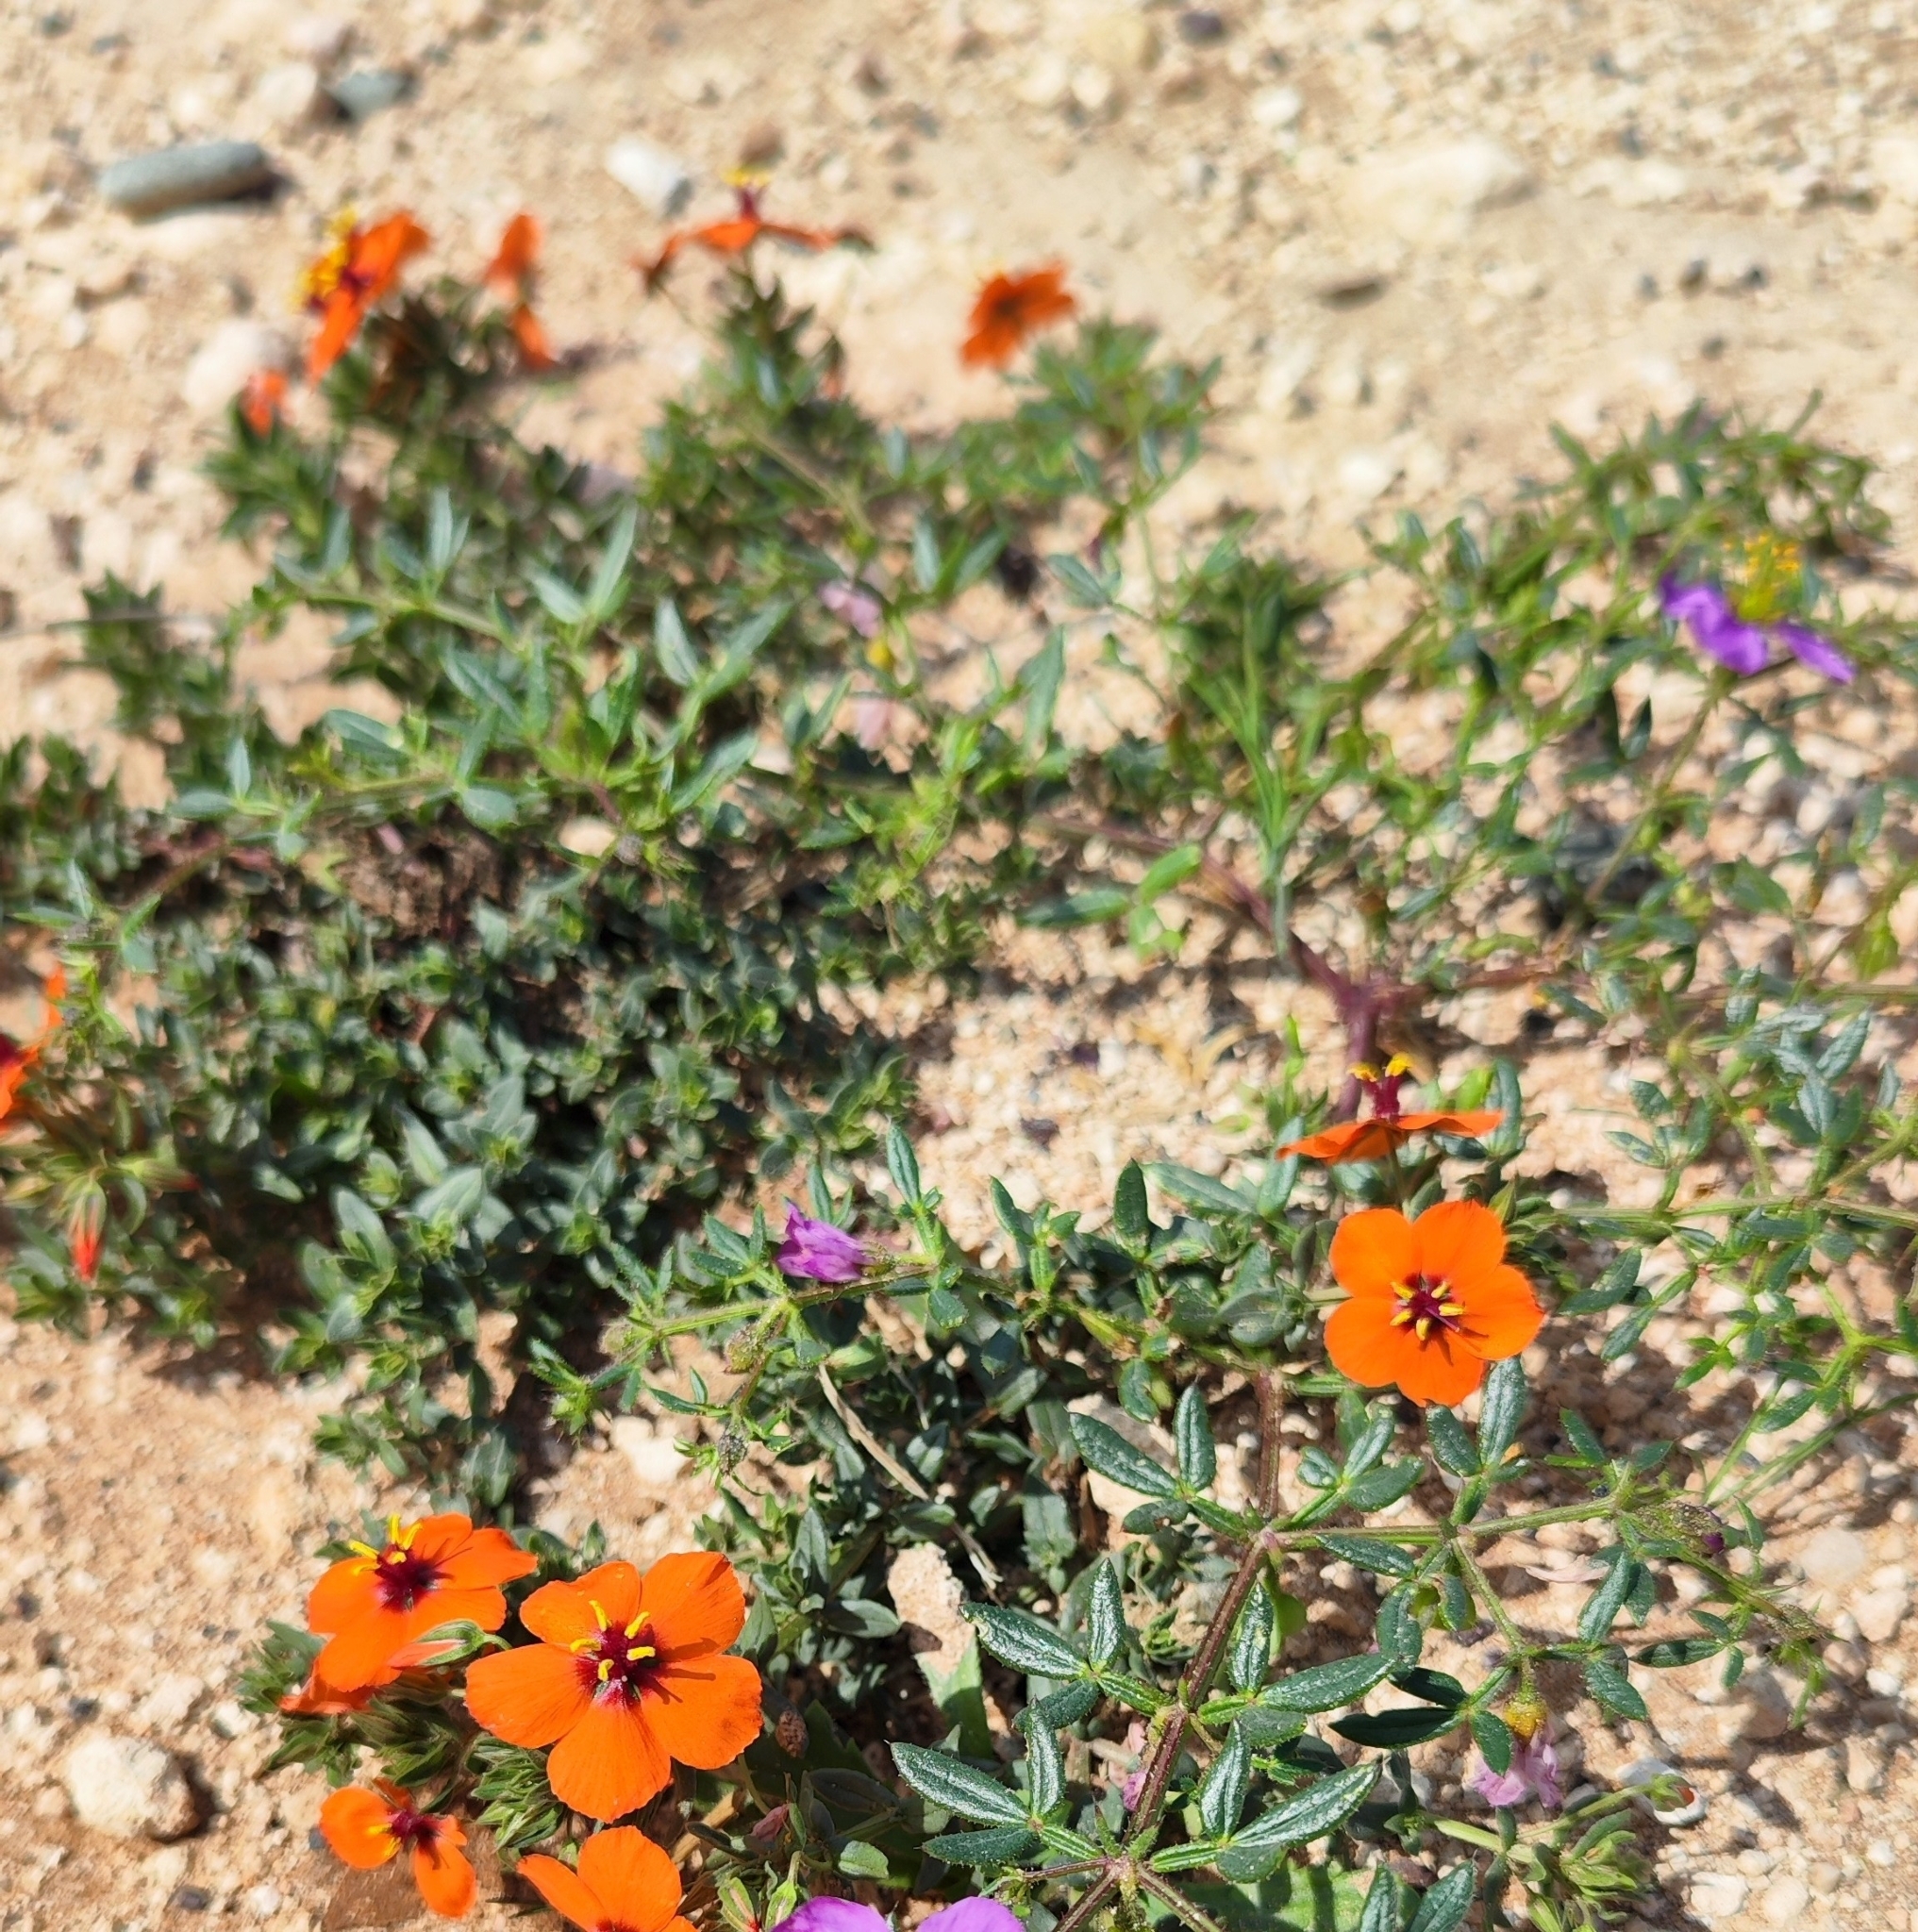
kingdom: Plantae
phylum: Tracheophyta
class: Magnoliopsida
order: Ericales
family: Primulaceae
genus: Lysimachia
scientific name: Lysimachia arvensis
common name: Scarlet pimpernel
